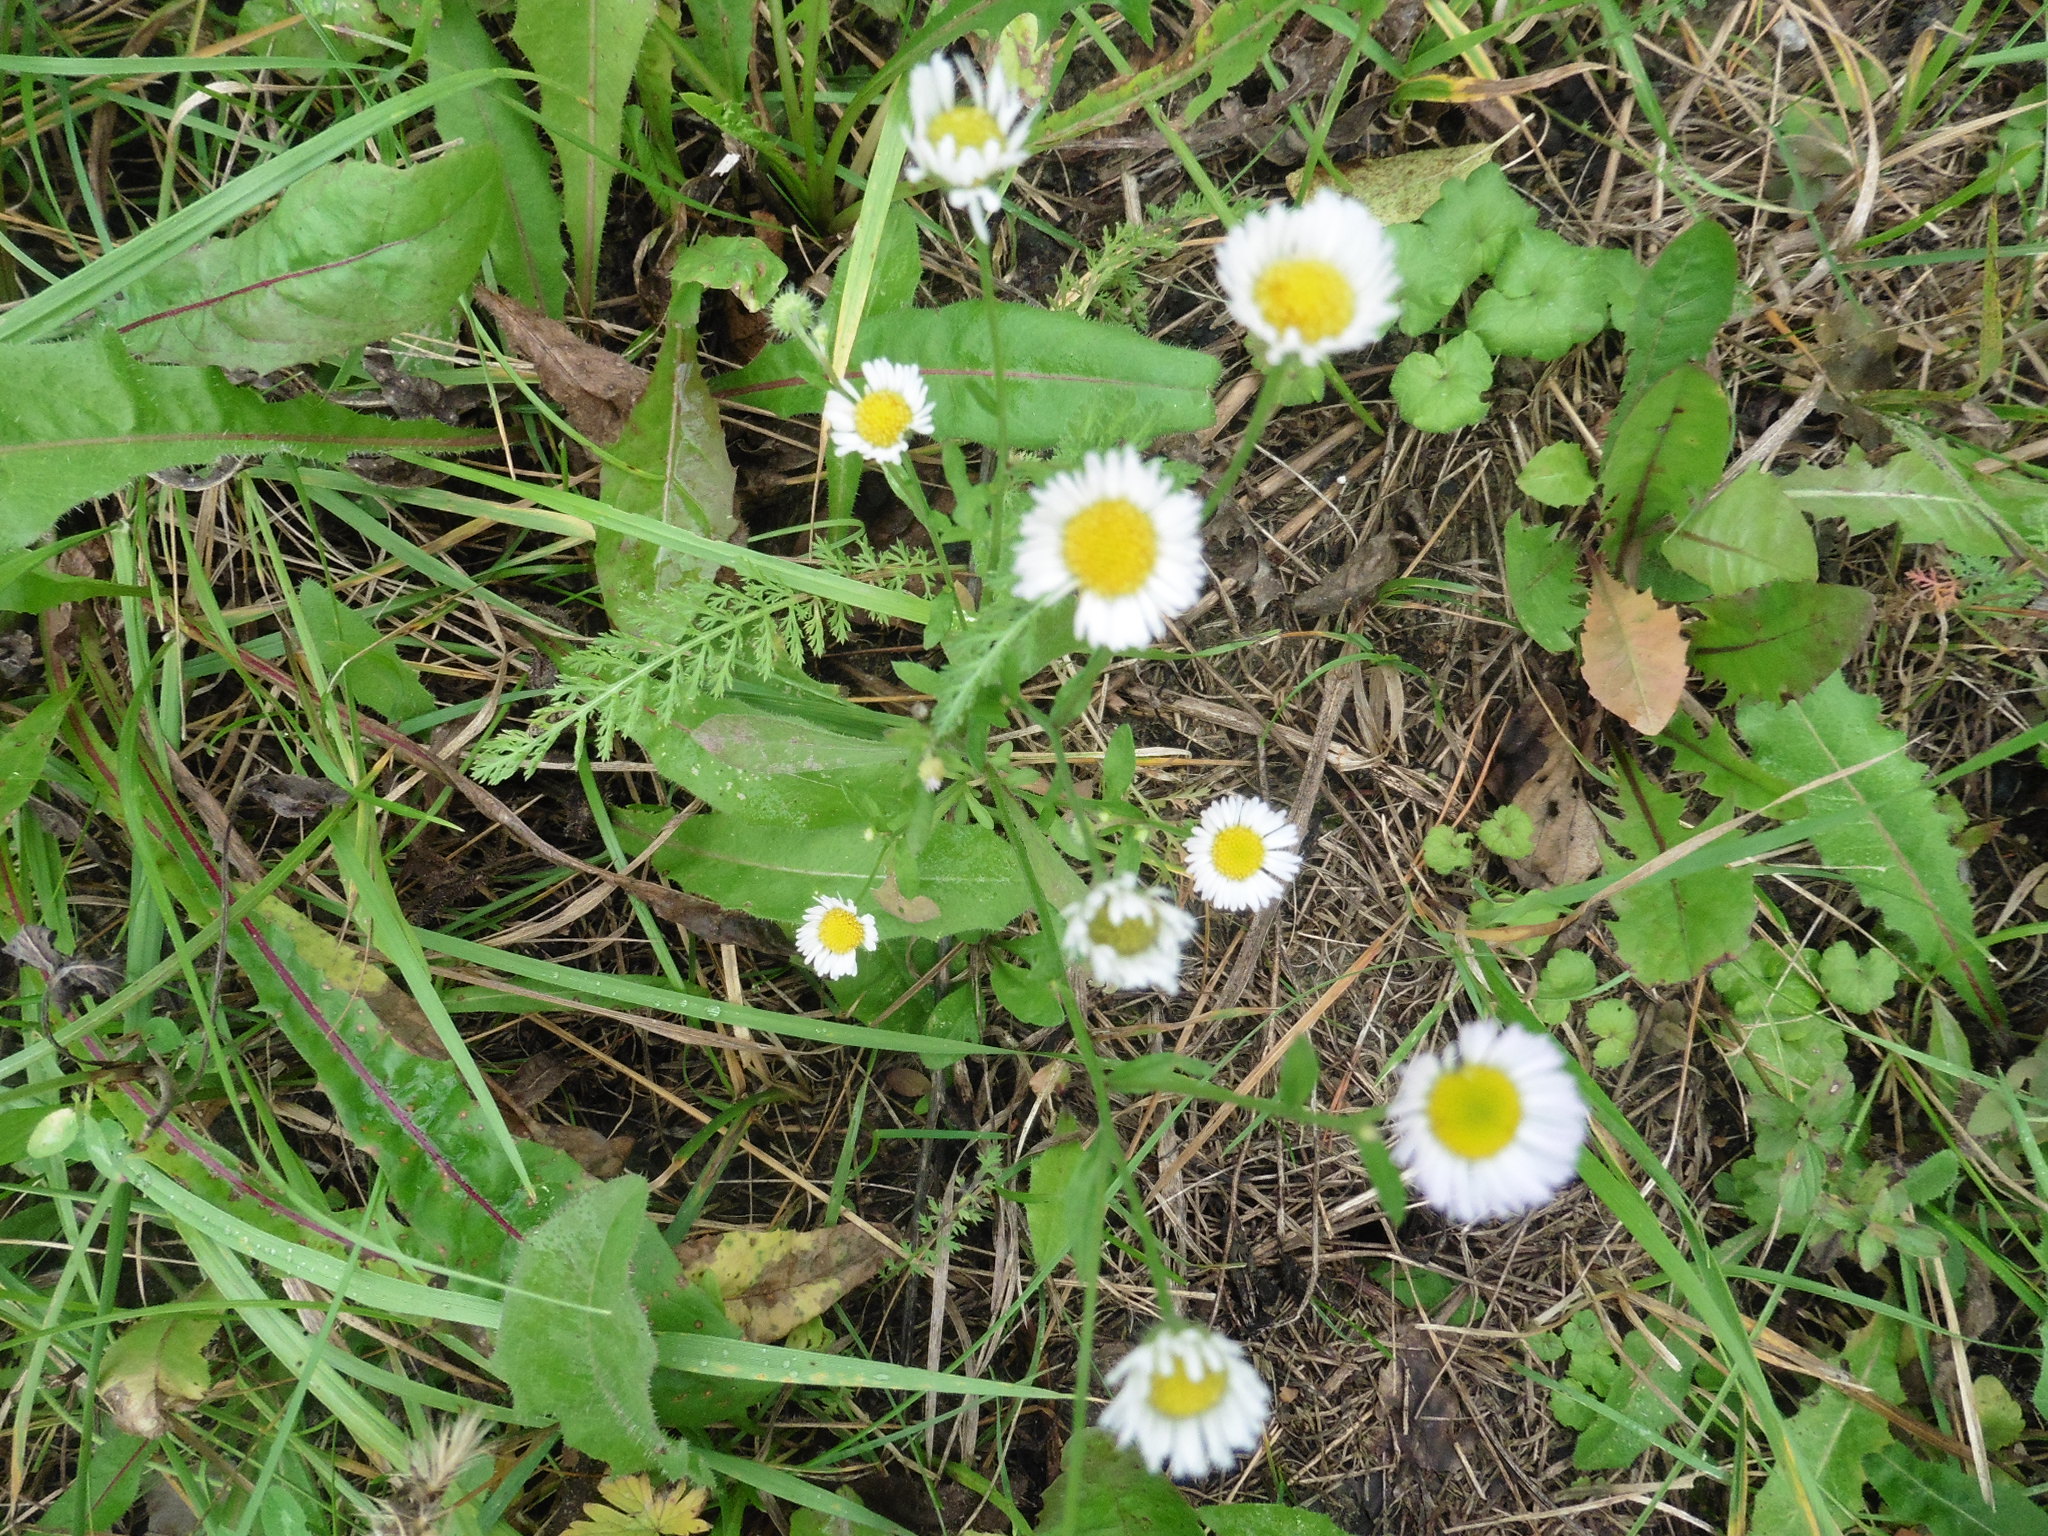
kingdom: Plantae
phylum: Tracheophyta
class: Magnoliopsida
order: Asterales
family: Asteraceae
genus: Erigeron
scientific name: Erigeron strigosus
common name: Common eastern fleabane
